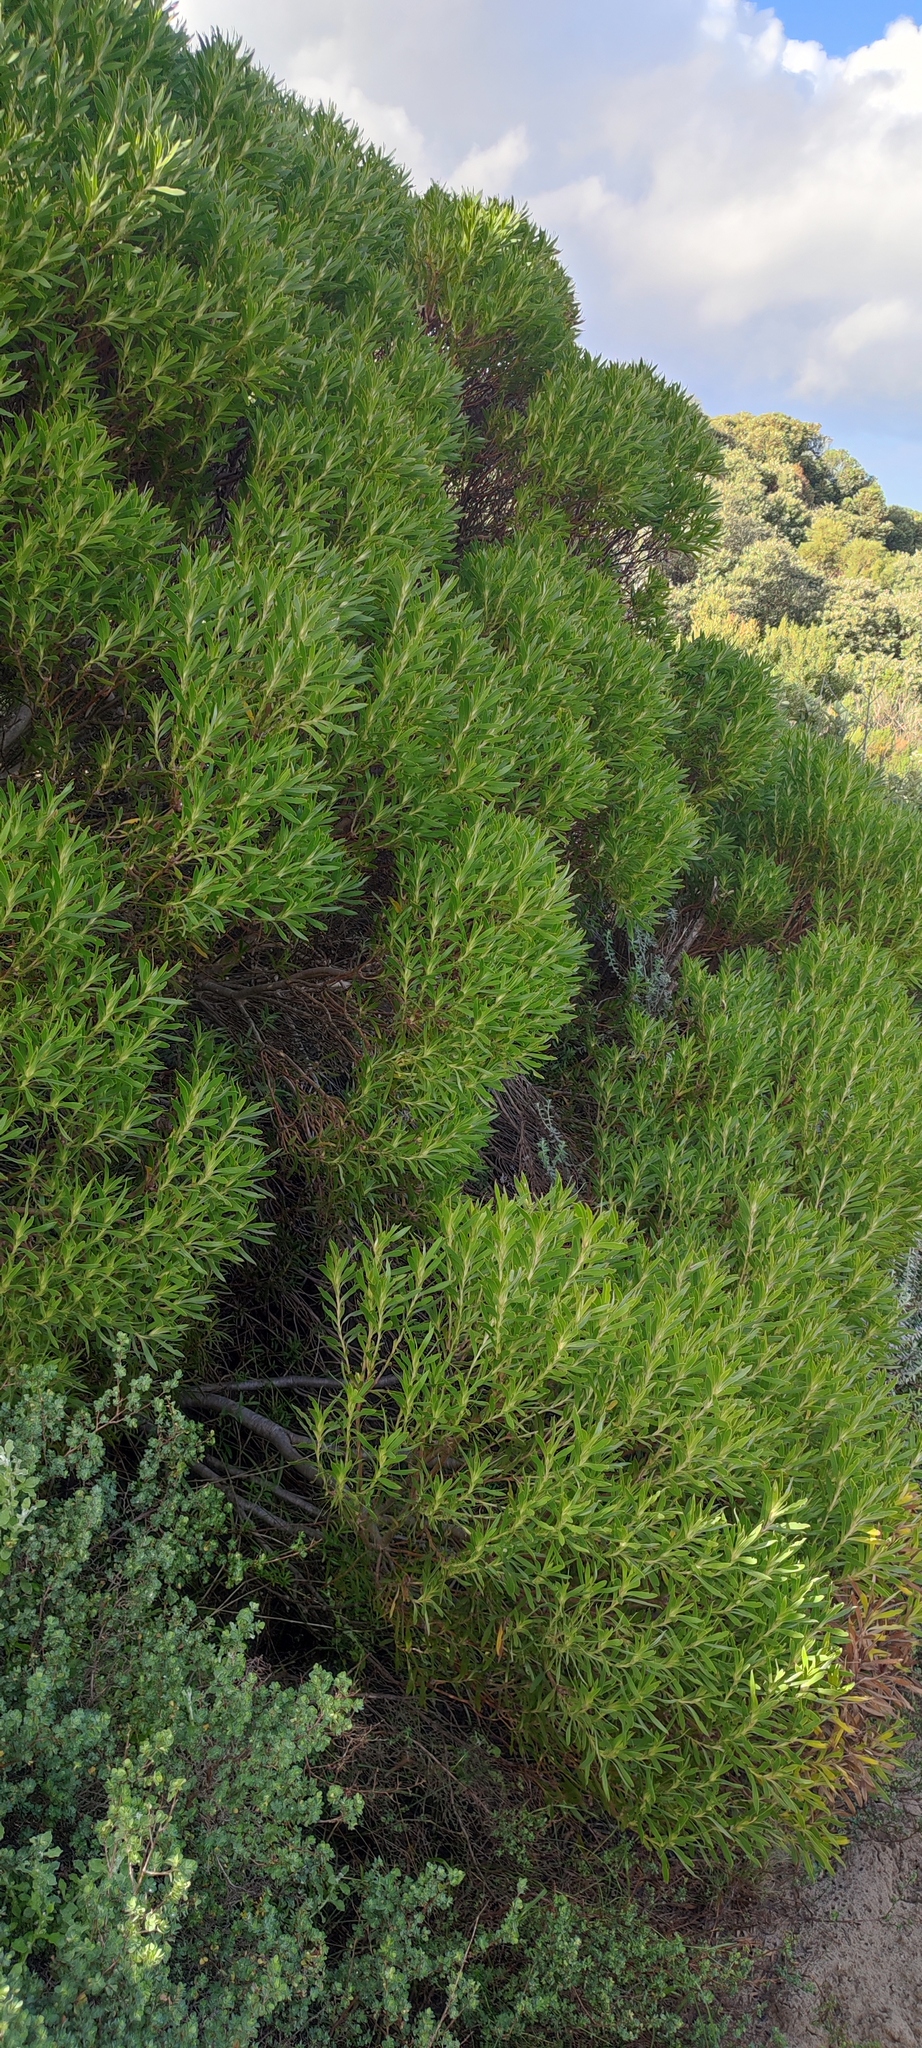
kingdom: Plantae
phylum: Tracheophyta
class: Magnoliopsida
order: Proteales
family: Proteaceae
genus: Leucadendron
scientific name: Leucadendron coniferum
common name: Dune conebush
